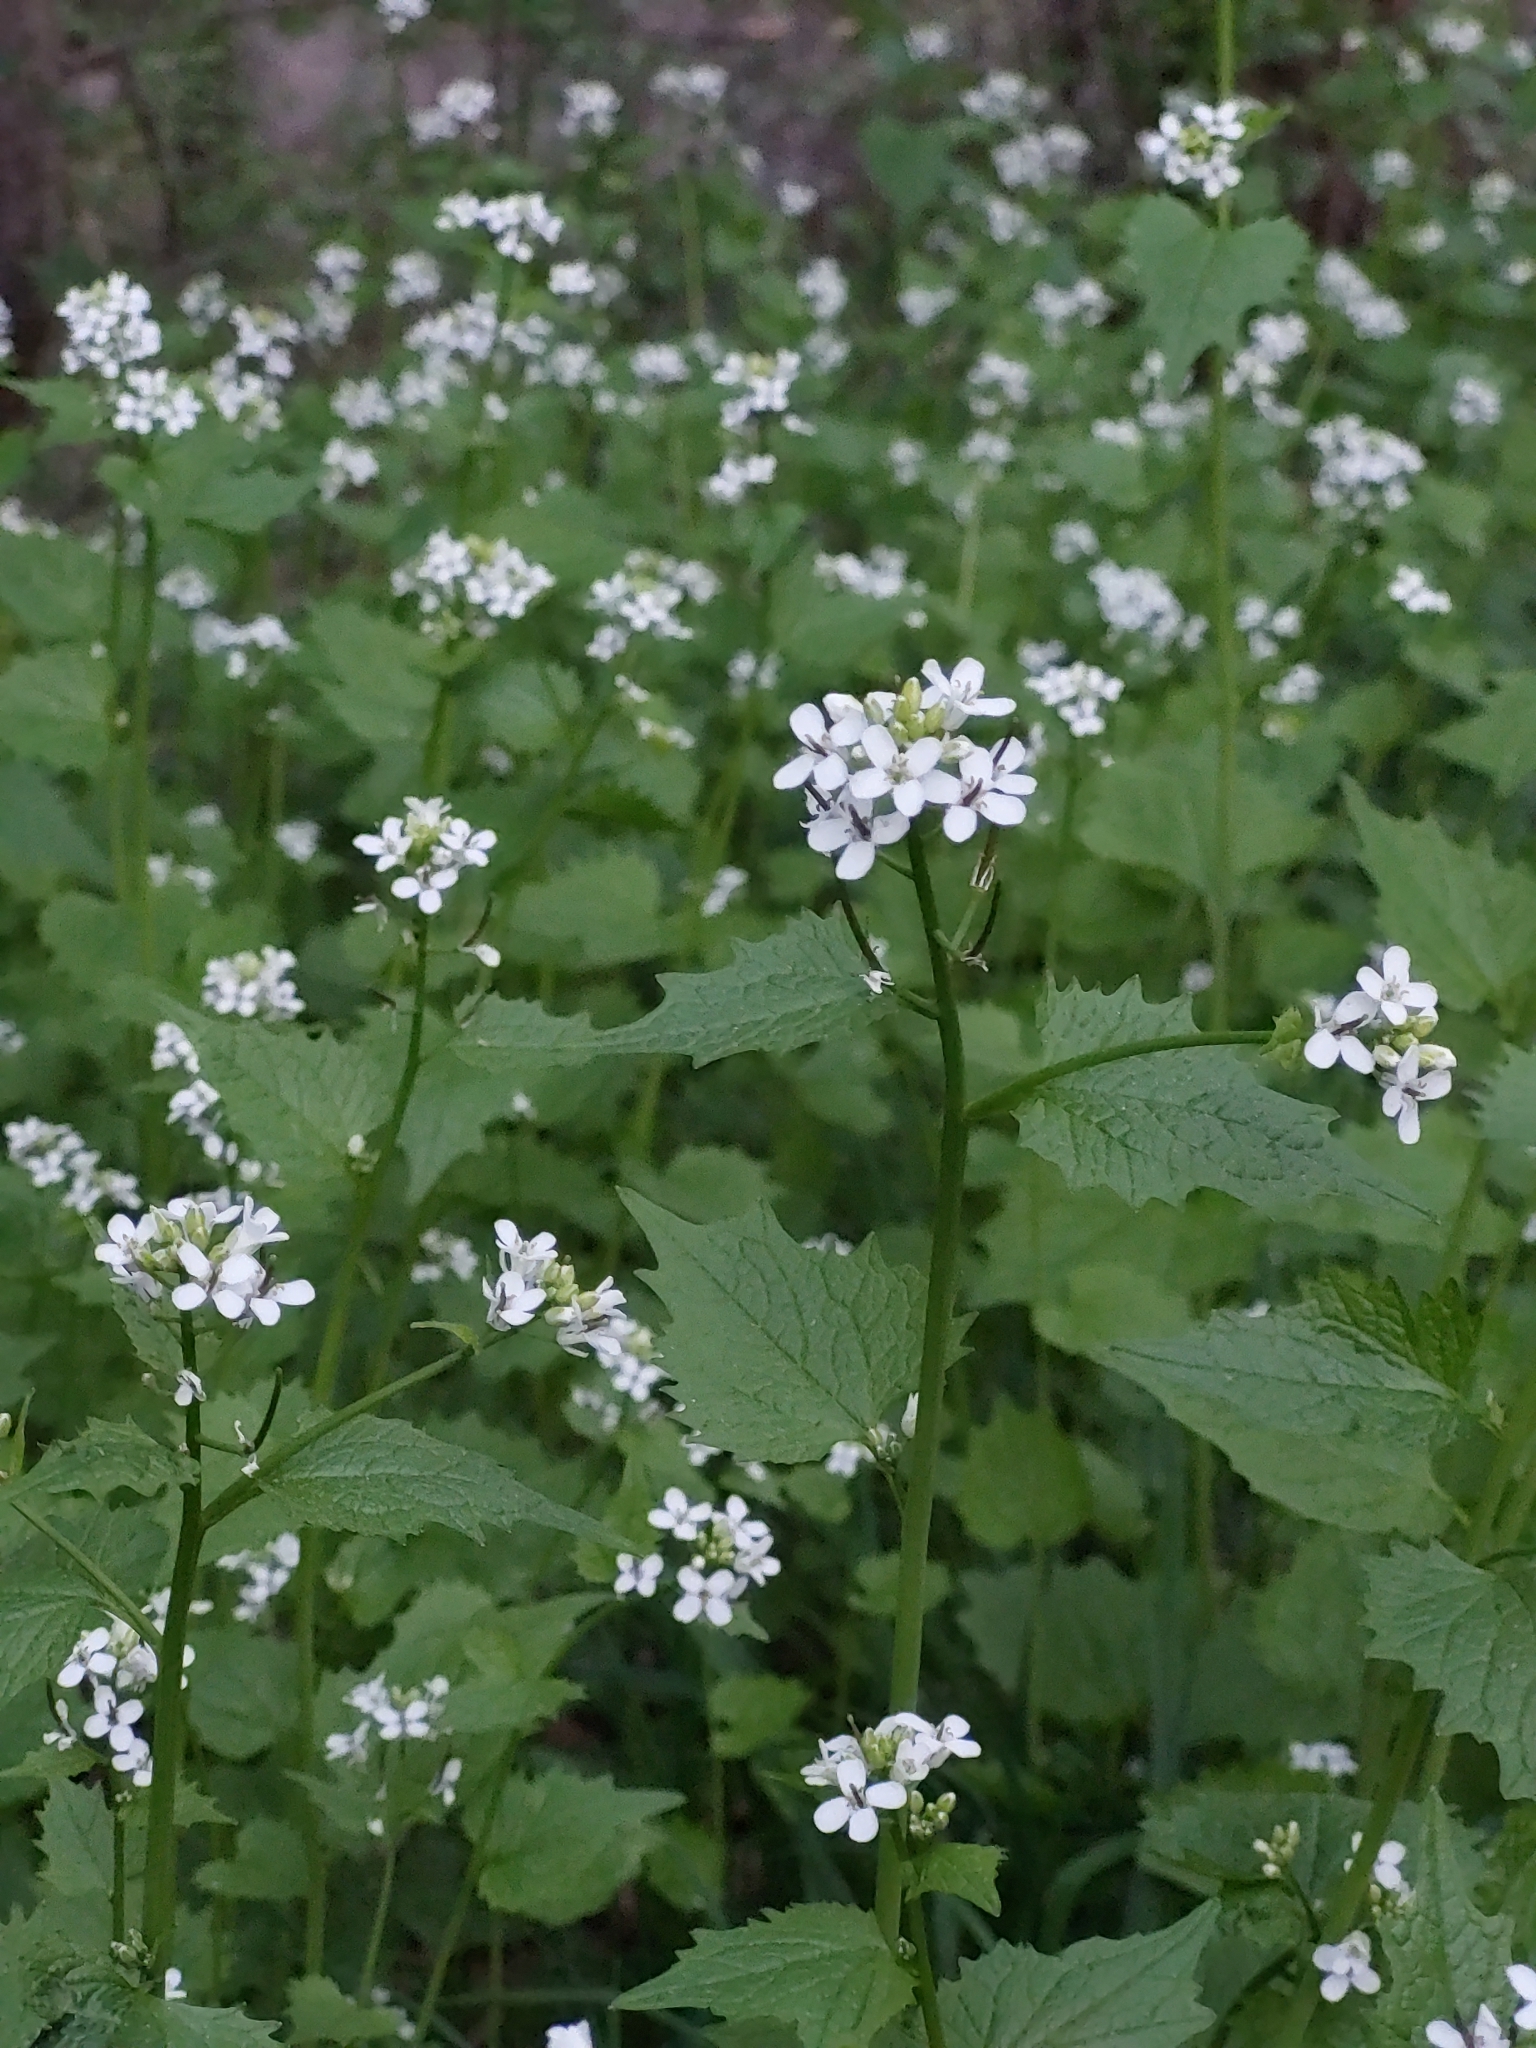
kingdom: Plantae
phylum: Tracheophyta
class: Magnoliopsida
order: Brassicales
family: Brassicaceae
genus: Alliaria
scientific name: Alliaria petiolata
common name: Garlic mustard
